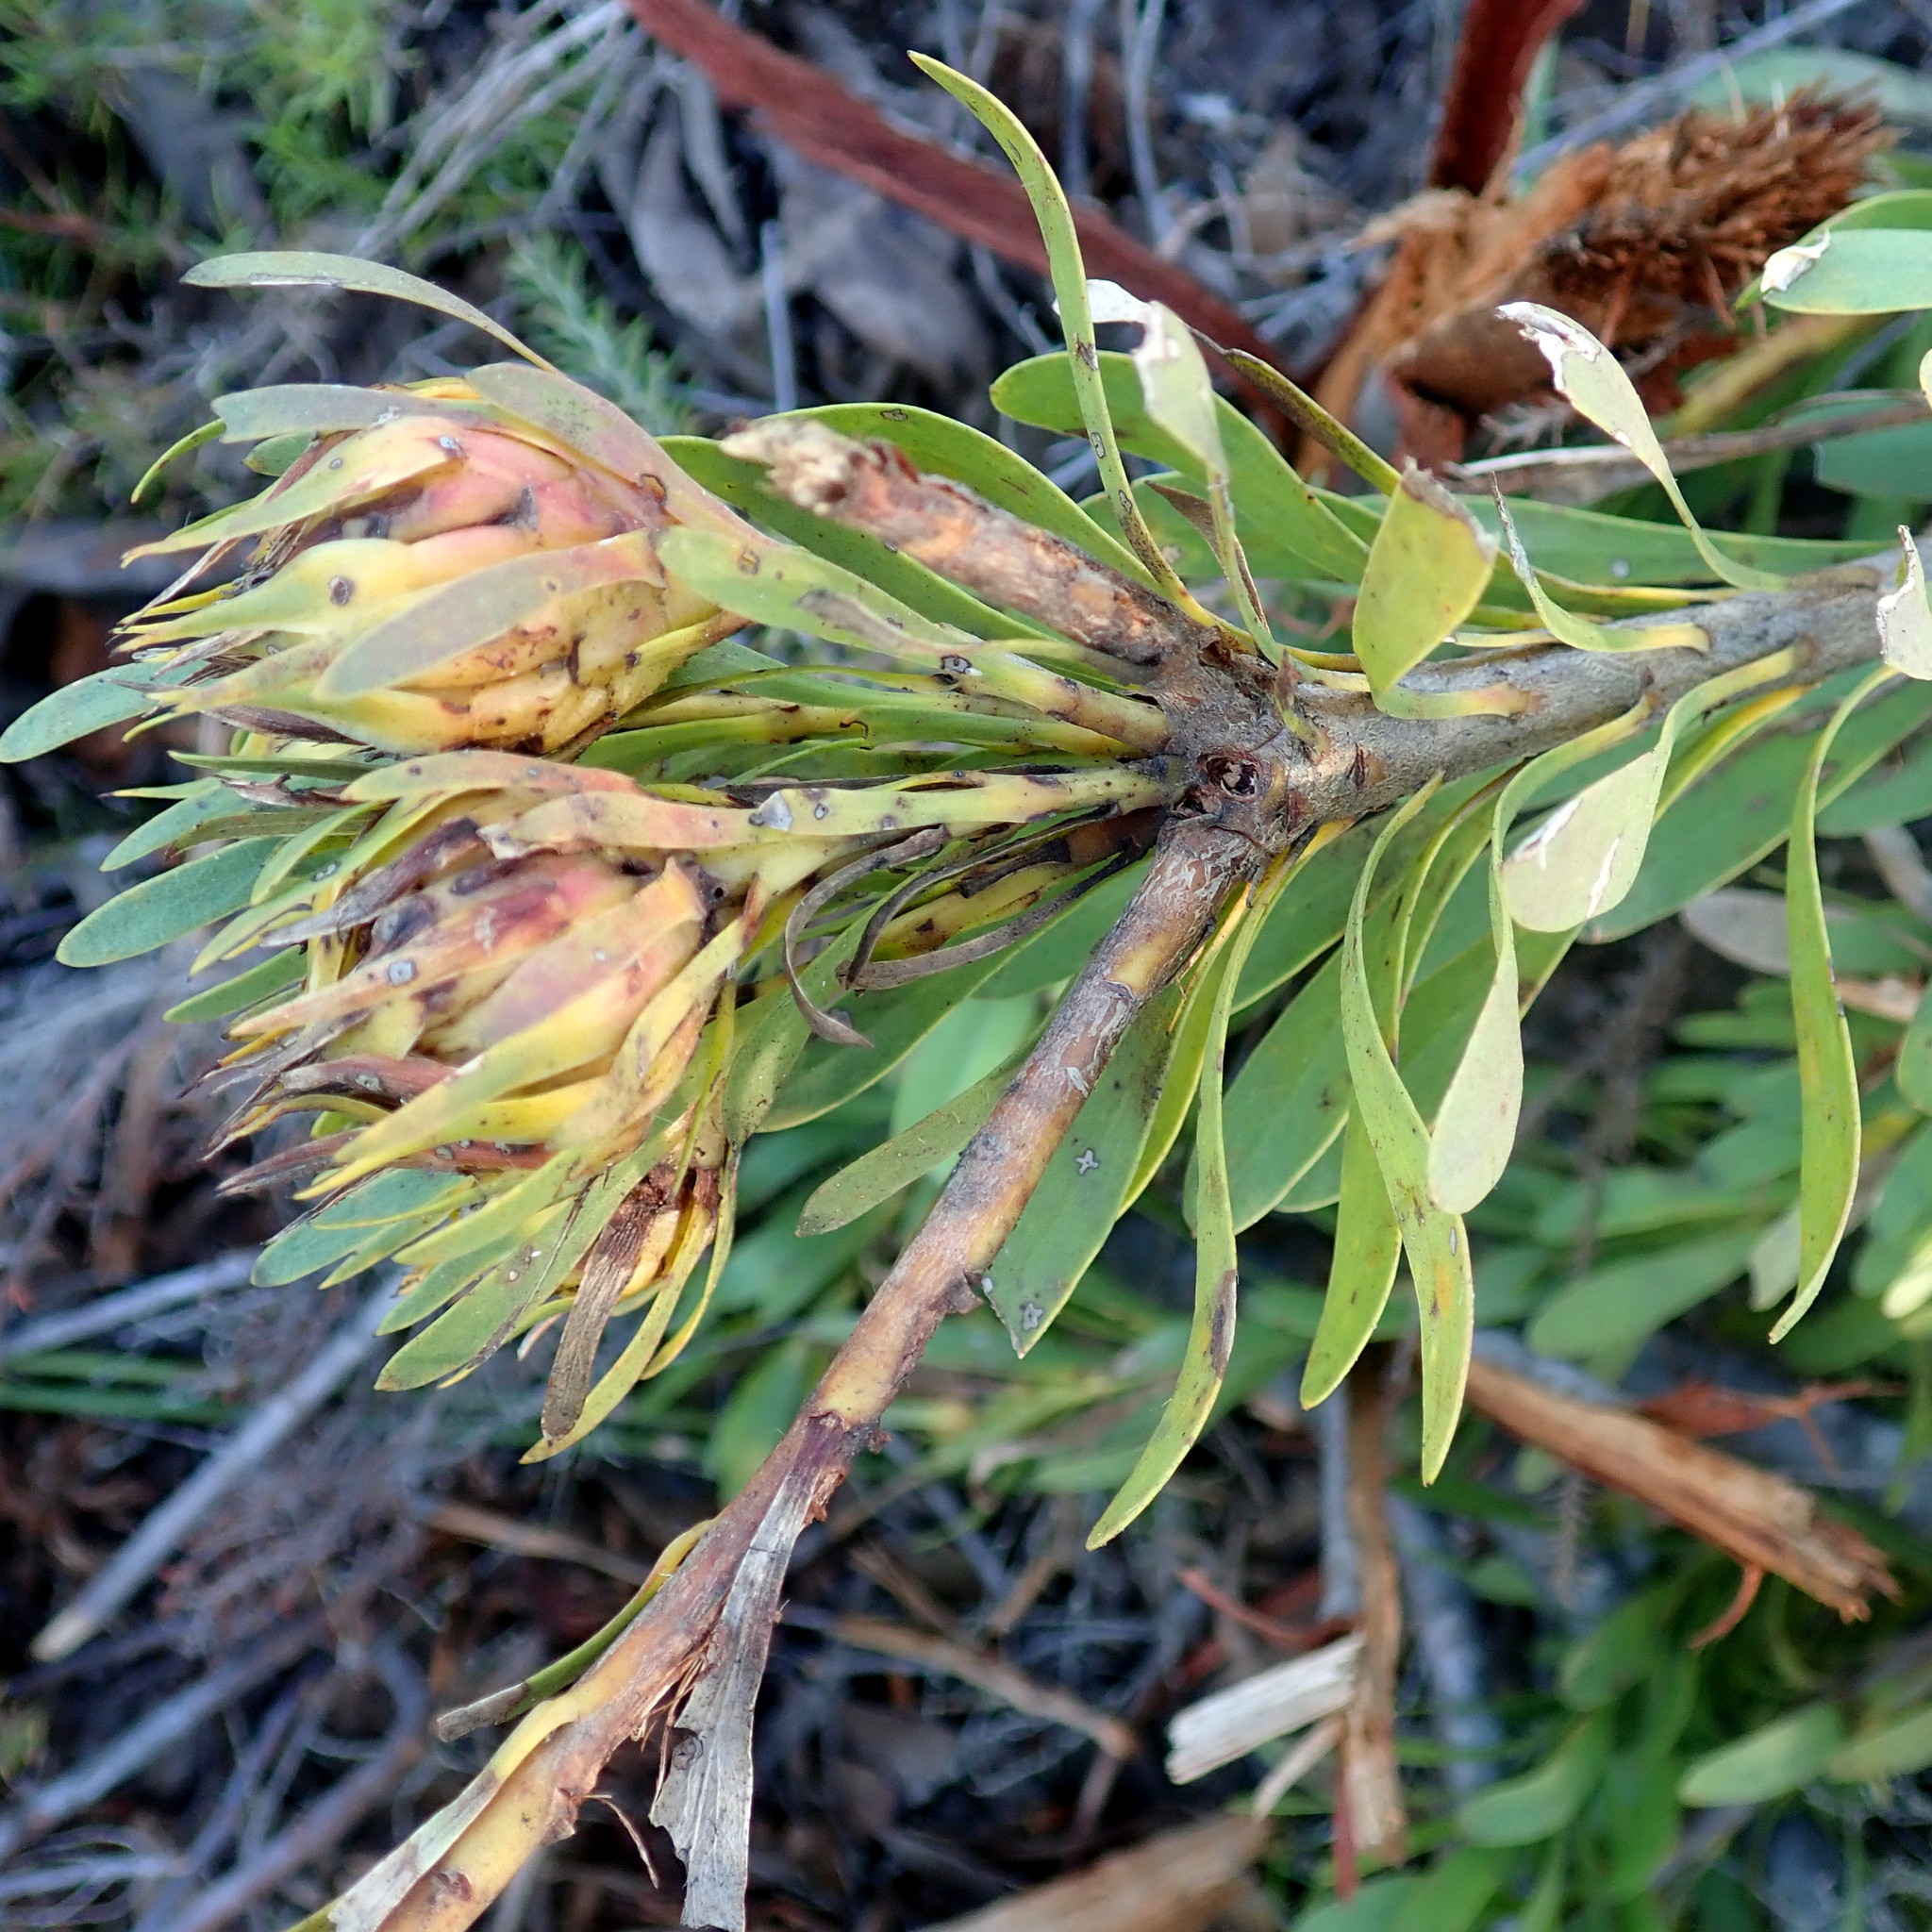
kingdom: Plantae
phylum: Tracheophyta
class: Magnoliopsida
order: Proteales
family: Proteaceae
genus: Aulax
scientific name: Aulax umbellata
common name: Broad-leaf featherbush
